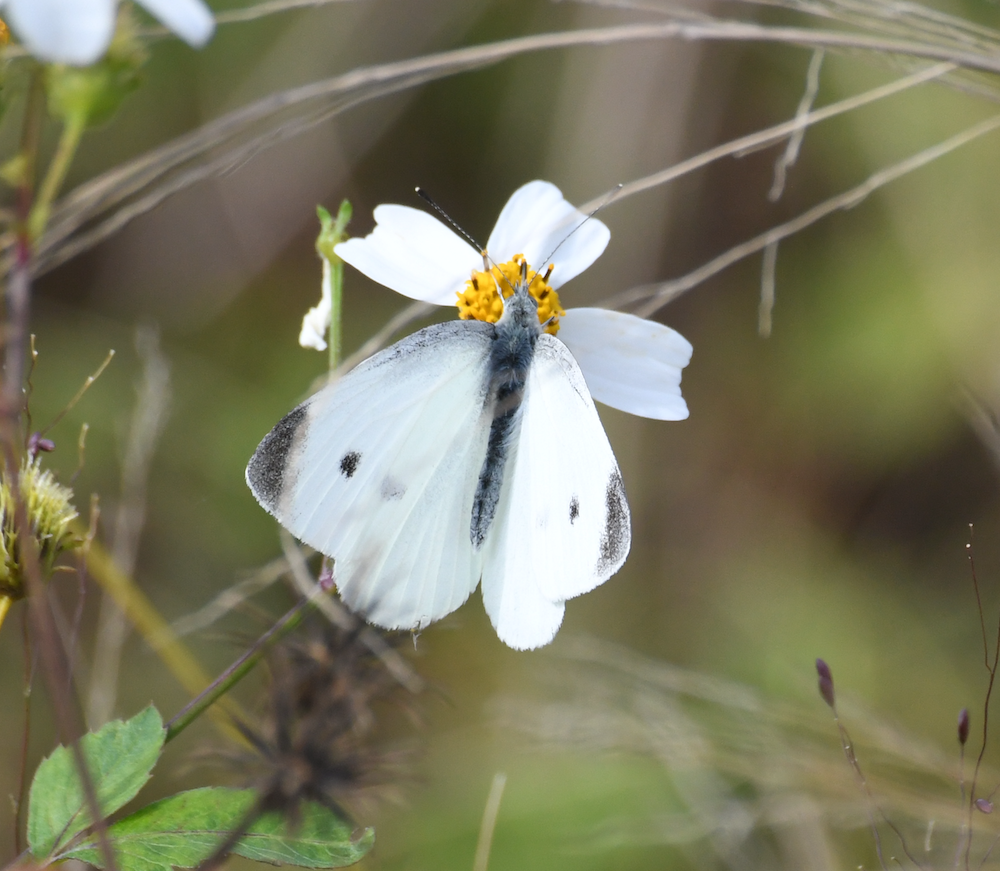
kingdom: Animalia
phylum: Arthropoda
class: Insecta
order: Lepidoptera
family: Pieridae
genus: Pieris
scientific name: Pieris rapae
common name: Small white
